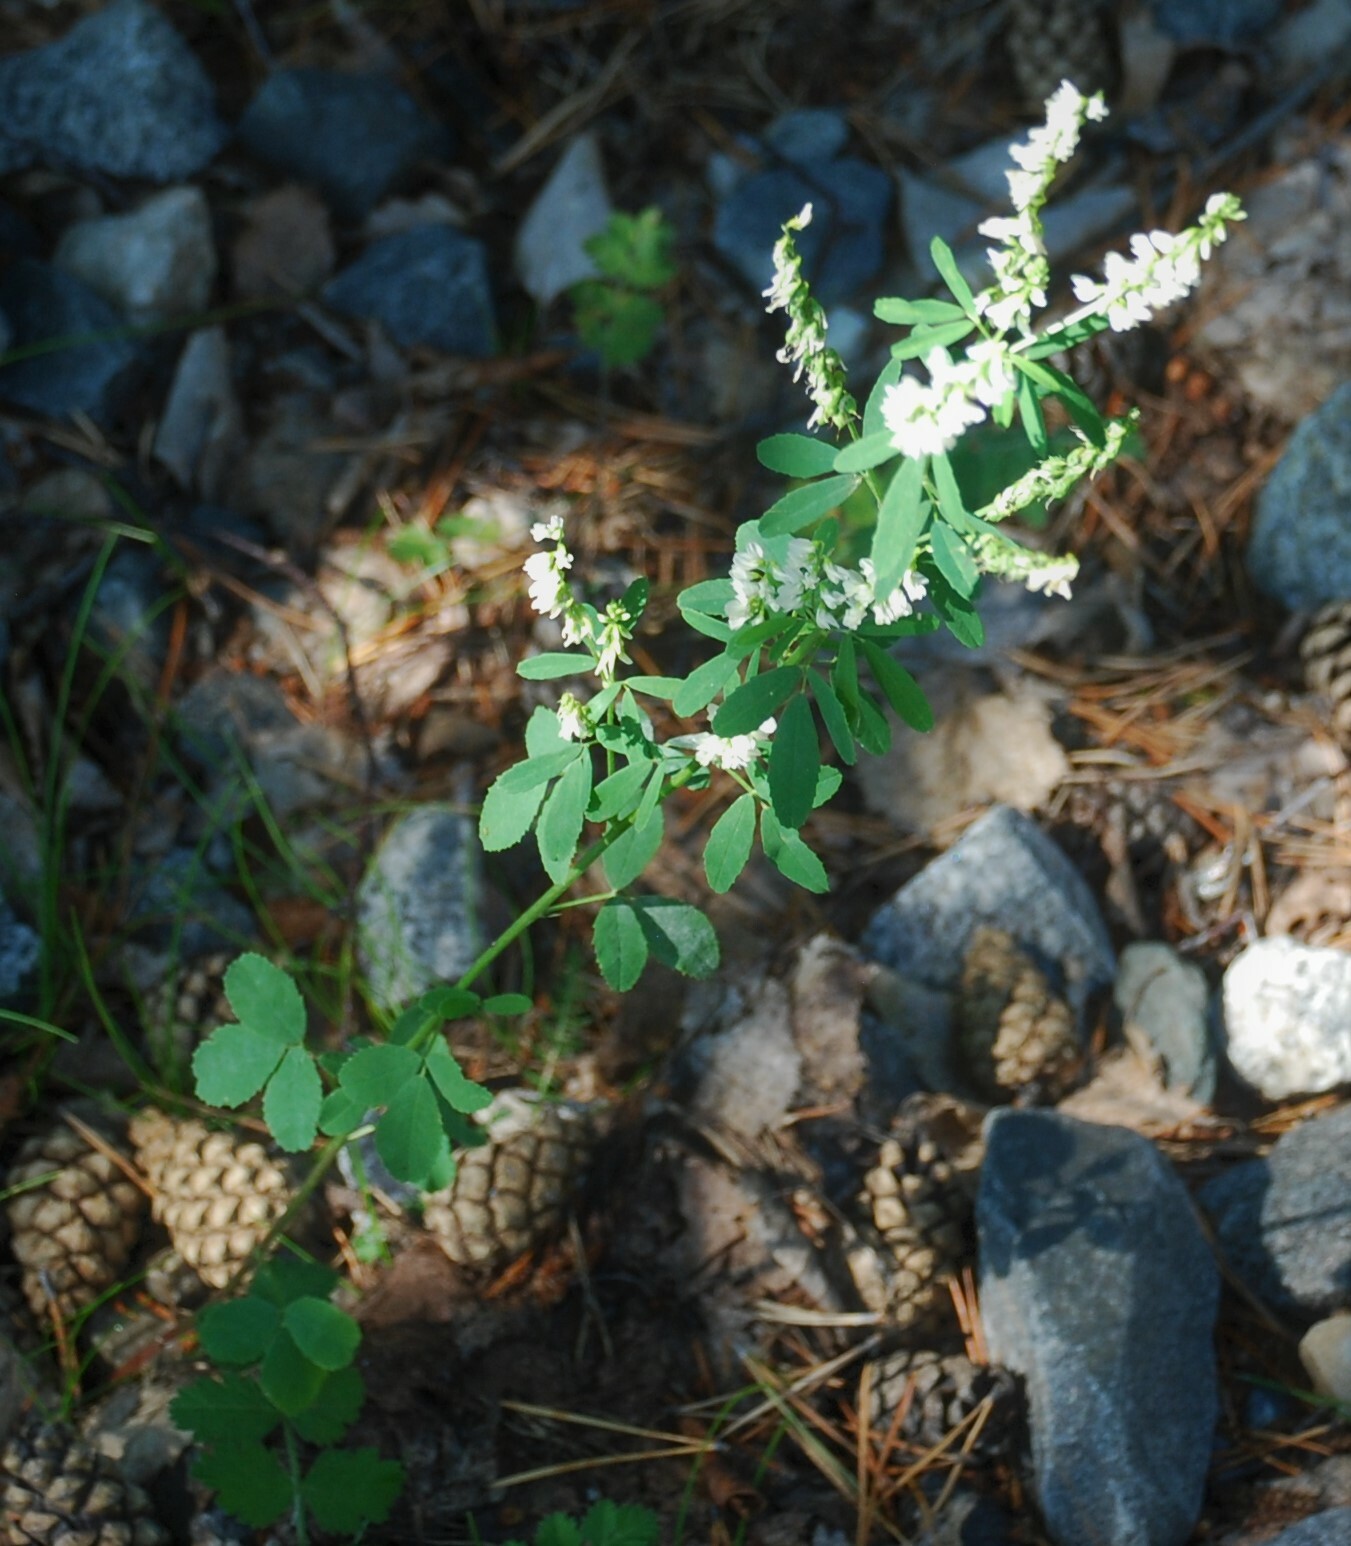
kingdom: Plantae
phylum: Tracheophyta
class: Magnoliopsida
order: Fabales
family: Fabaceae
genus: Melilotus
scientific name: Melilotus albus
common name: White melilot
